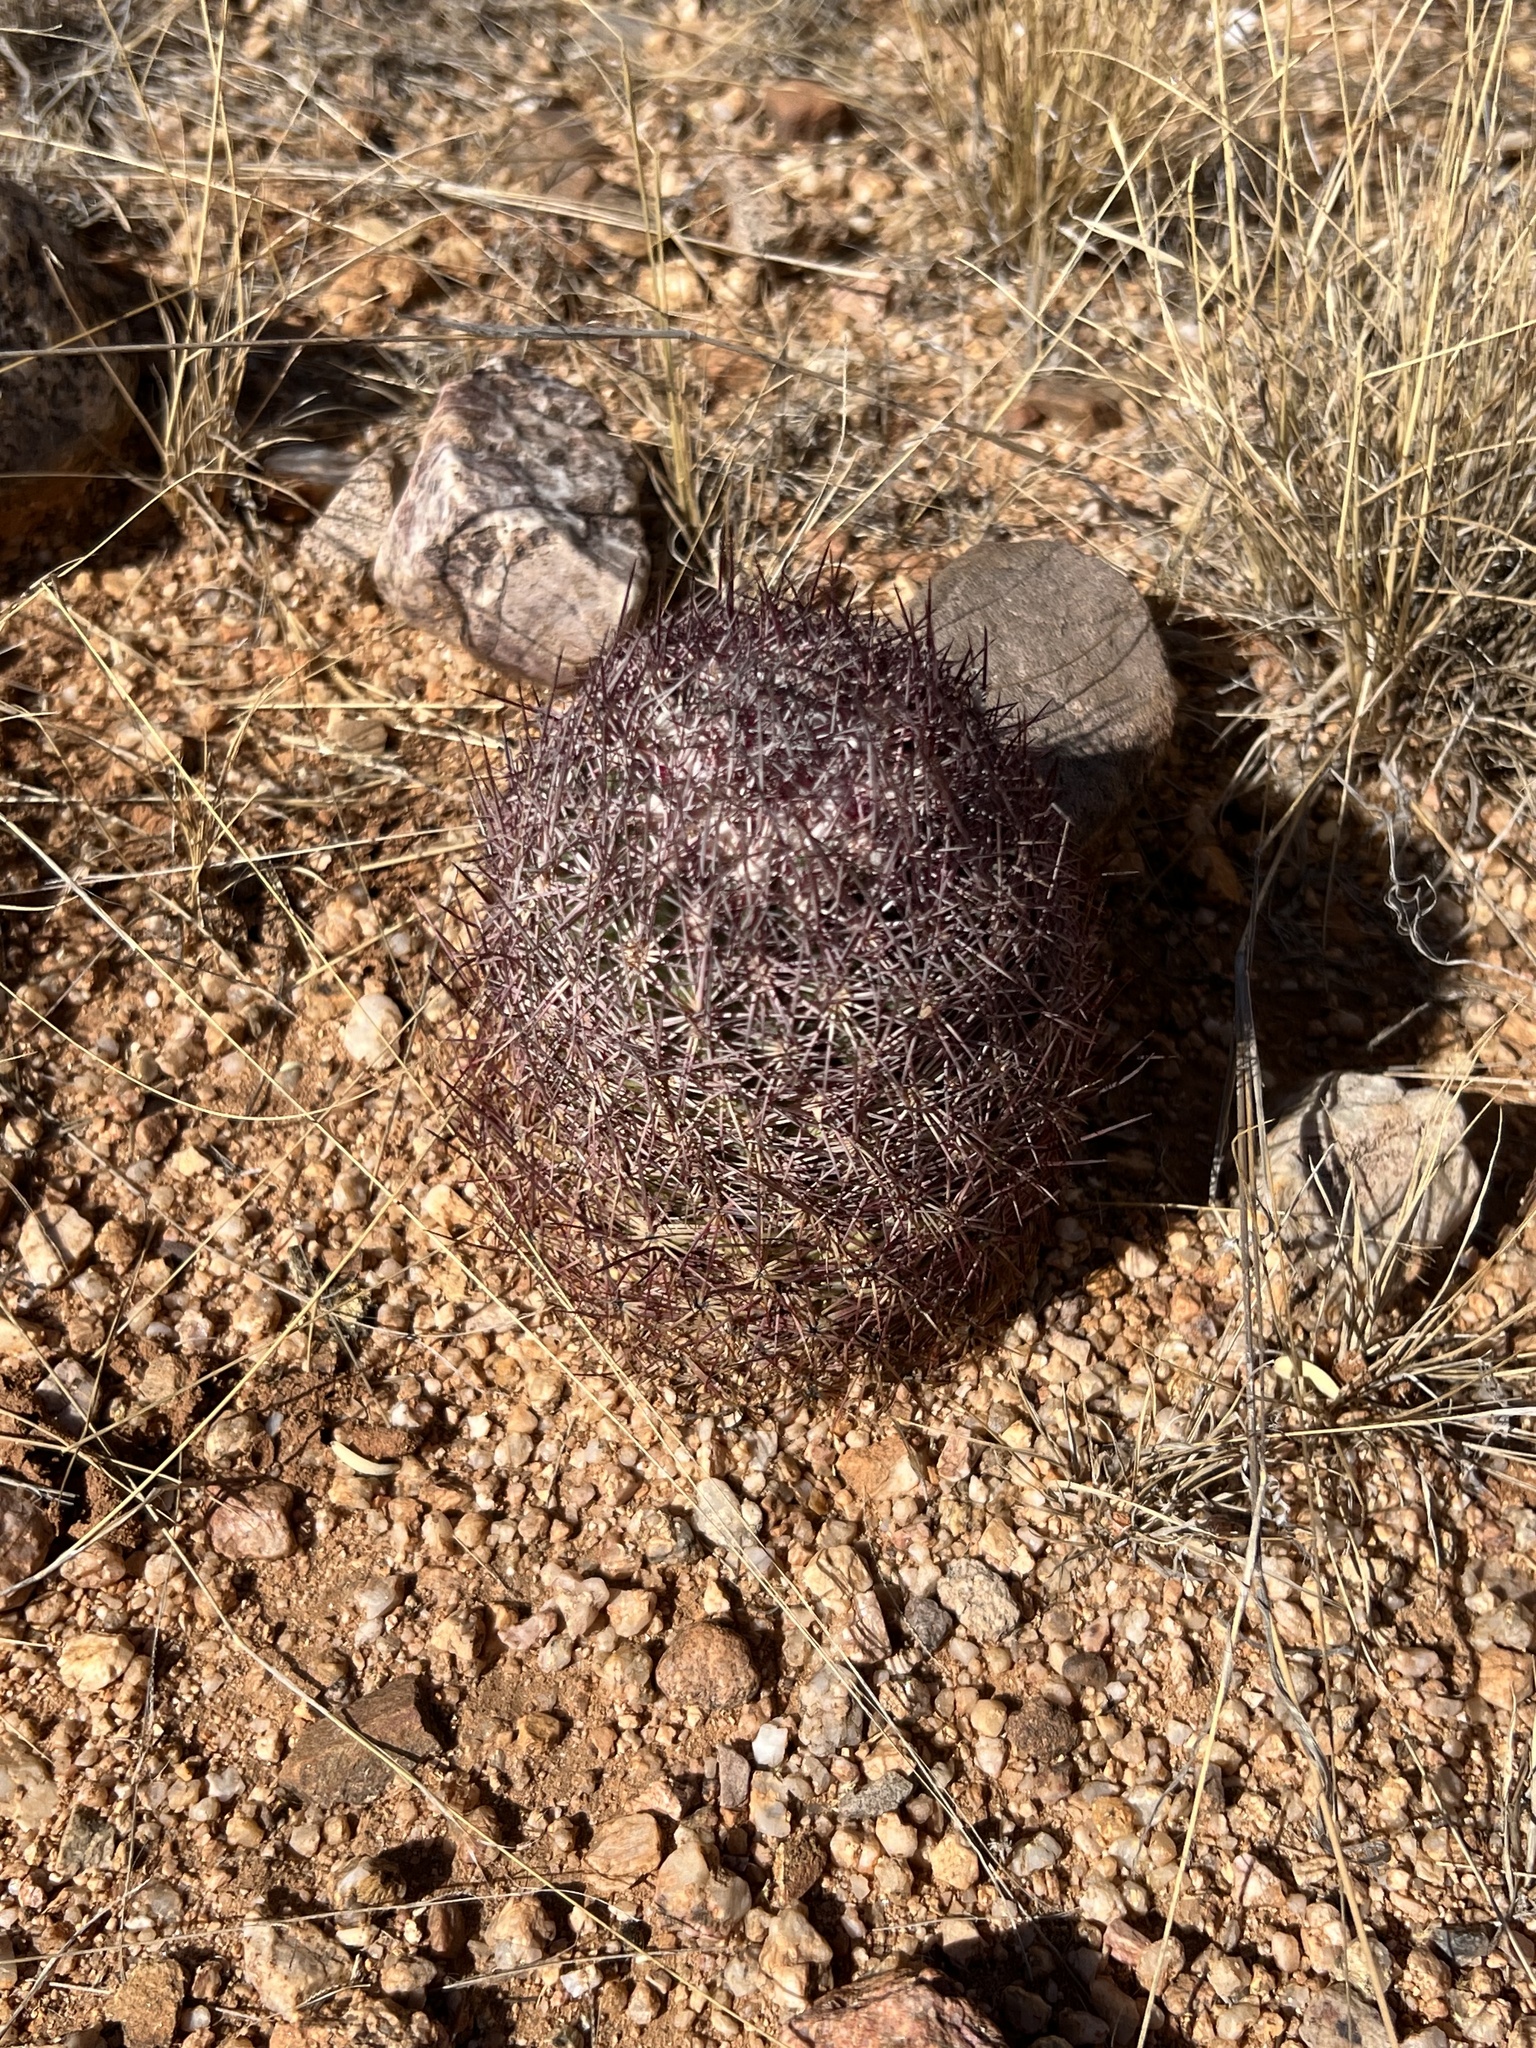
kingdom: Plantae
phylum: Tracheophyta
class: Magnoliopsida
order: Caryophyllales
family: Cactaceae
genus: Sclerocactus
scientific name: Sclerocactus johnsonii
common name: Eight-spine fishhook cactus
